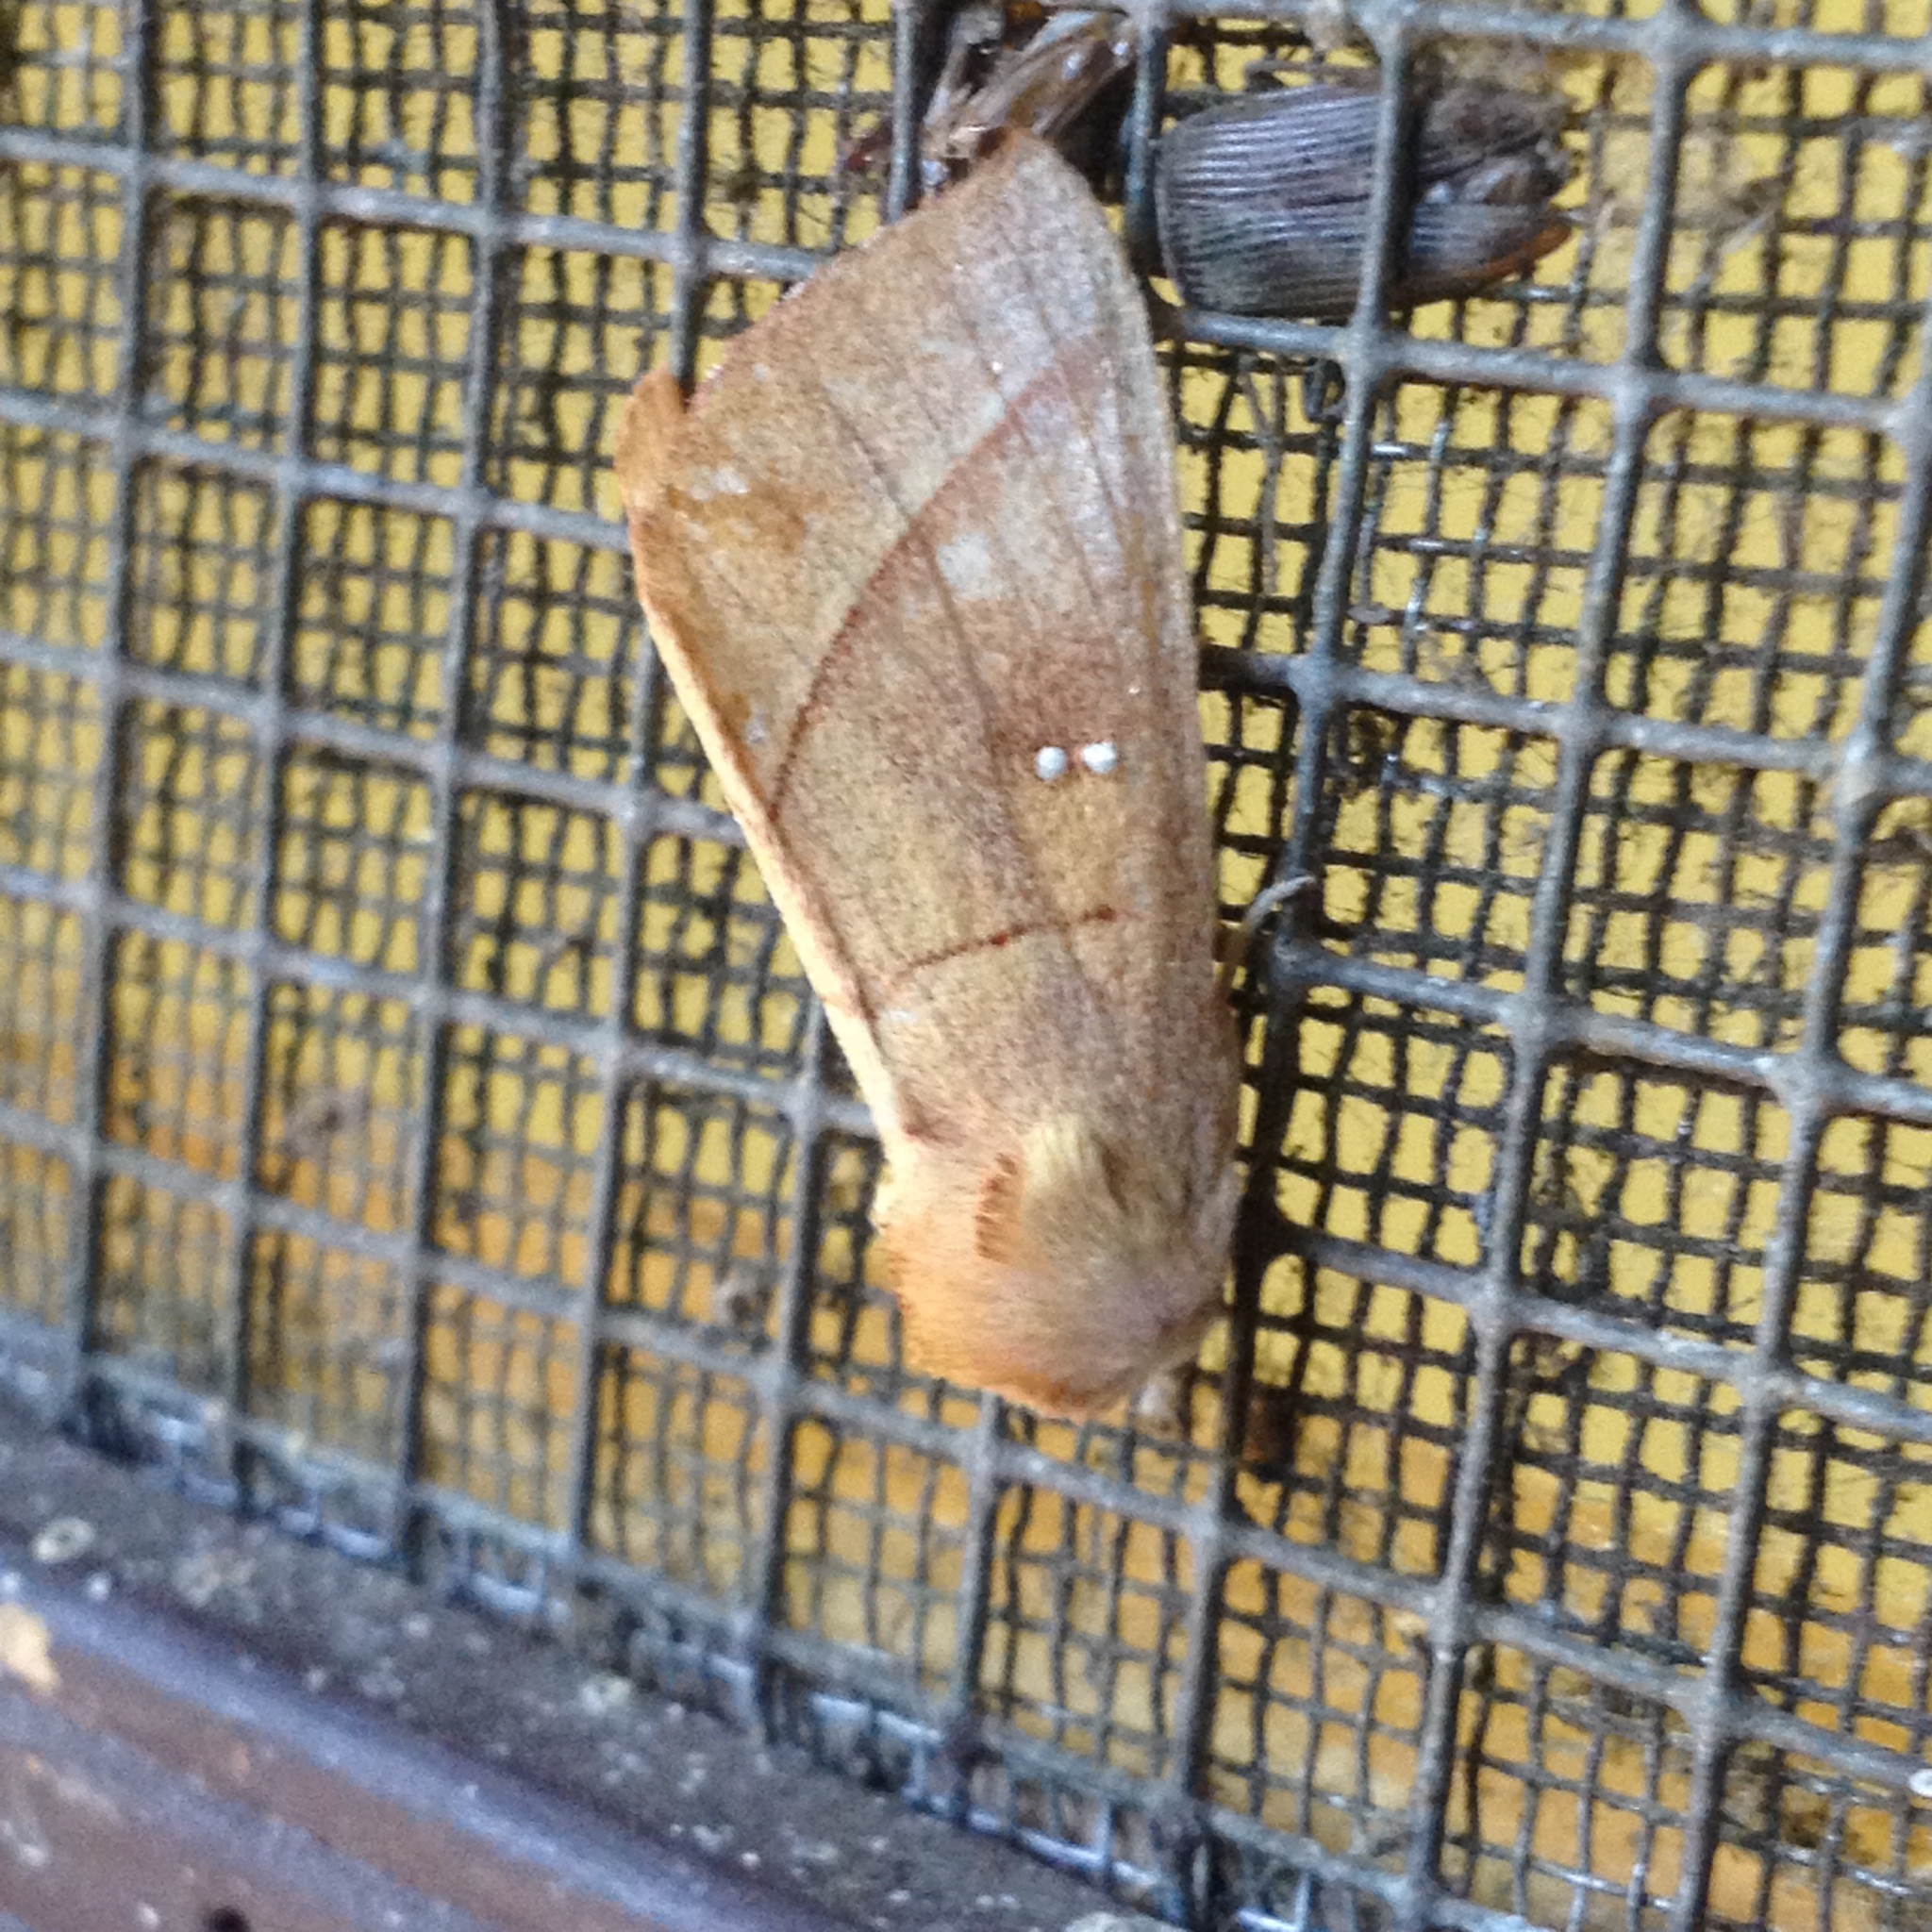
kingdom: Animalia
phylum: Arthropoda
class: Insecta
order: Lepidoptera
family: Notodontidae
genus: Nadata
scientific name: Nadata gibbosa
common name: White-dotted prominent
